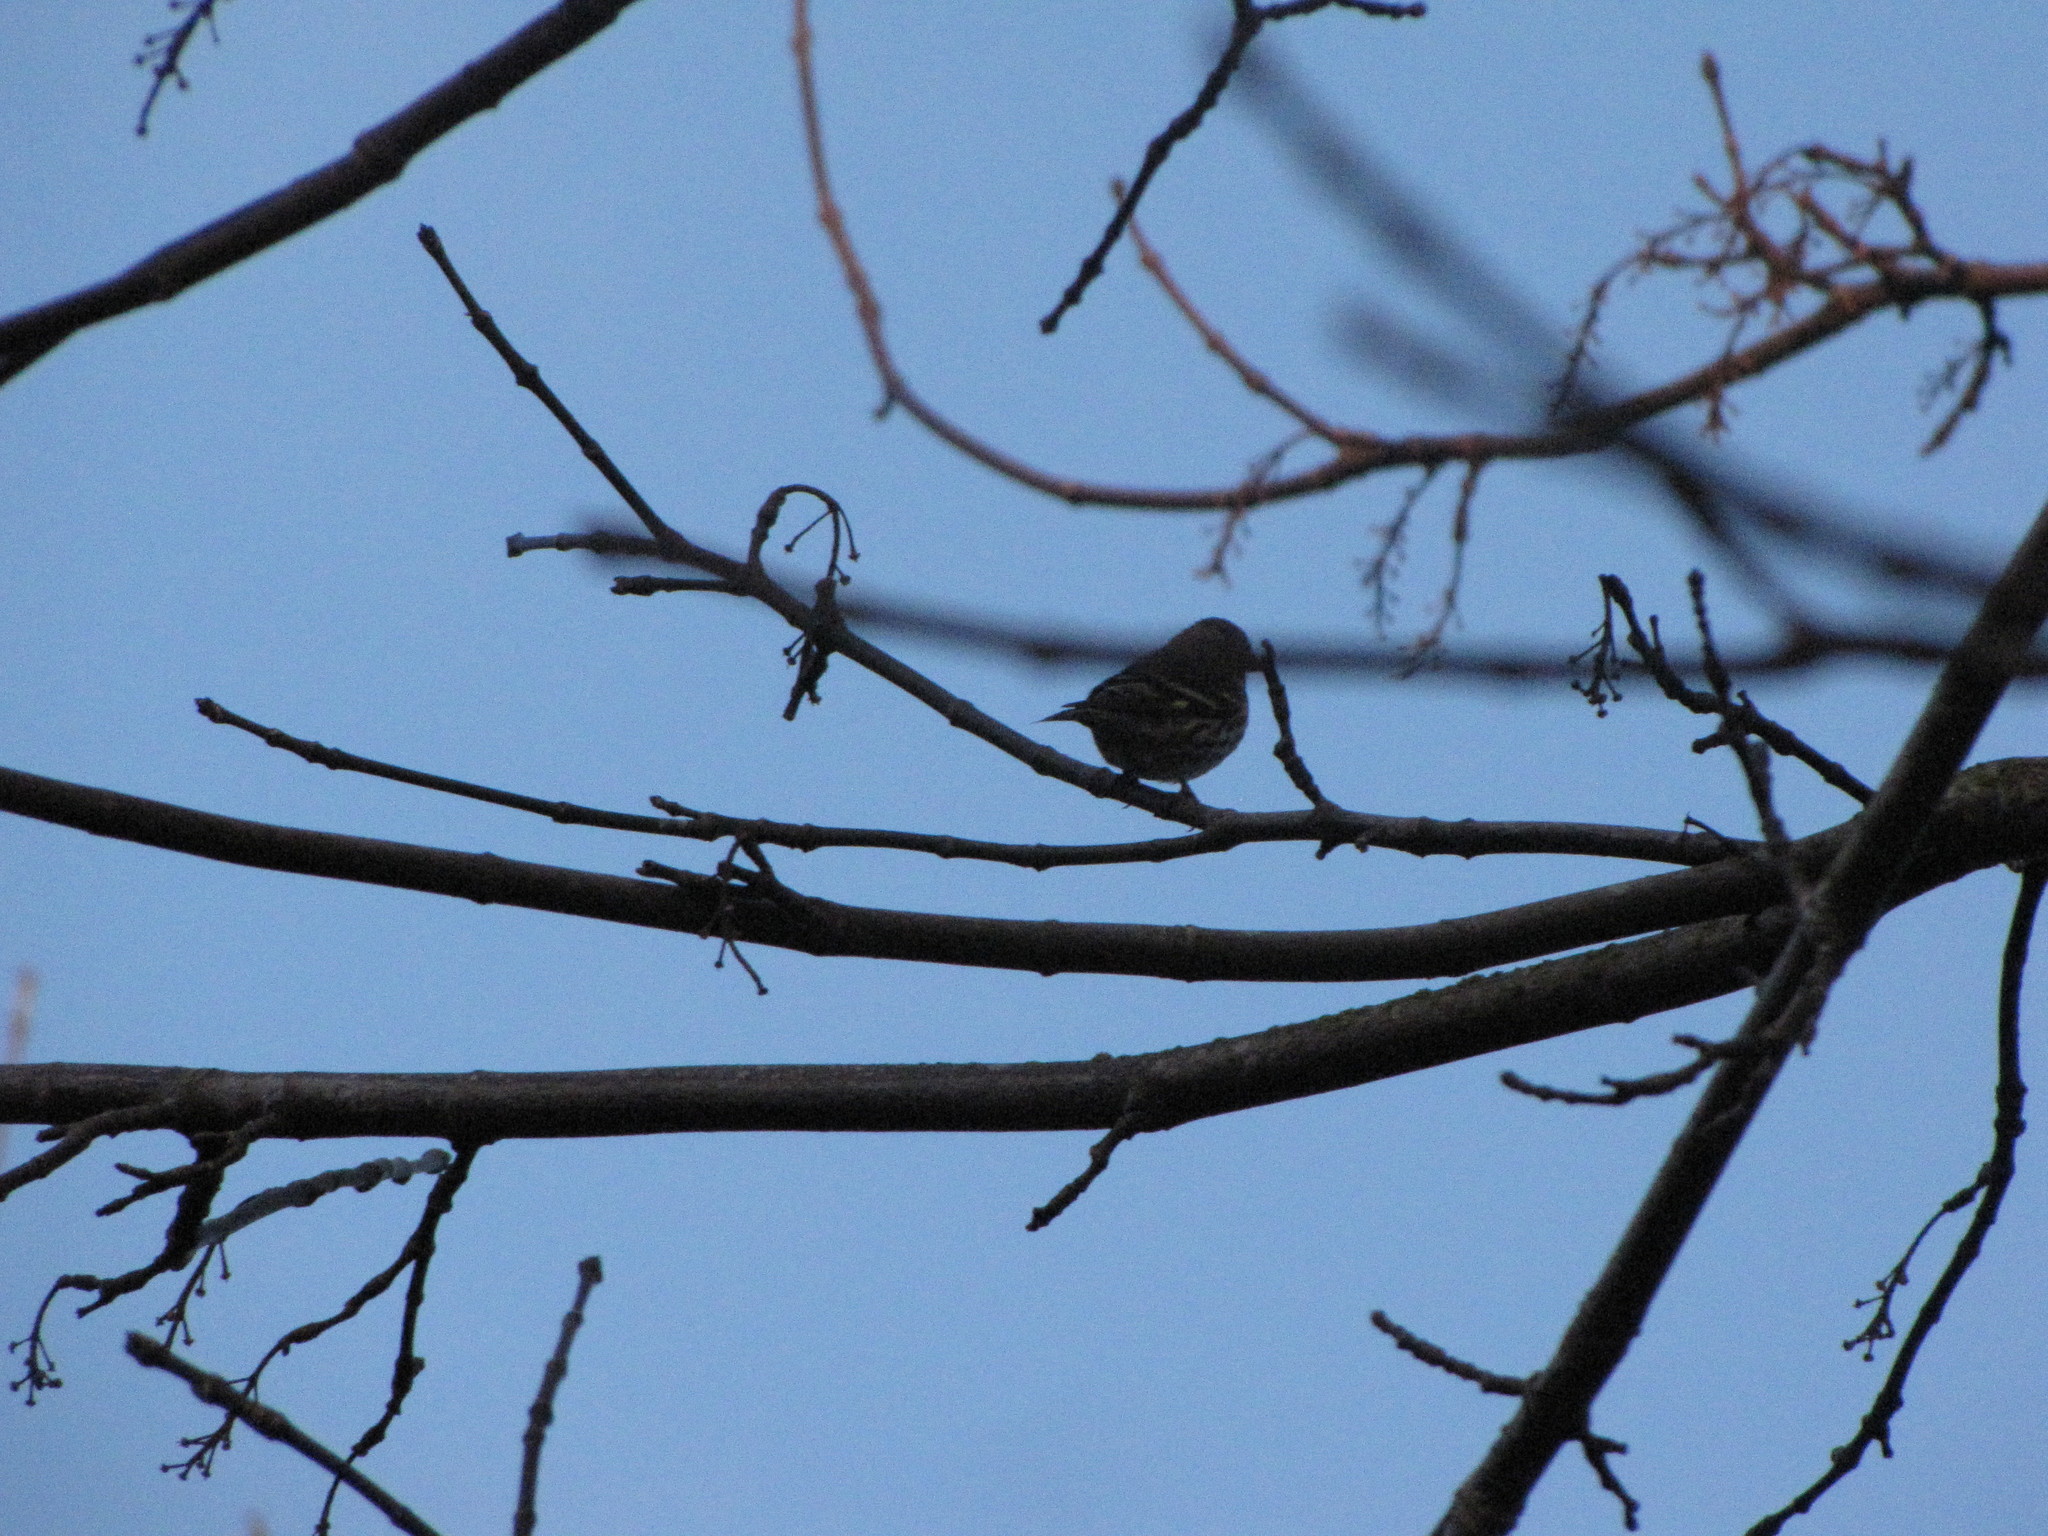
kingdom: Animalia
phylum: Chordata
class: Aves
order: Passeriformes
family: Fringillidae
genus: Spinus
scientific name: Spinus pinus
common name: Pine siskin
